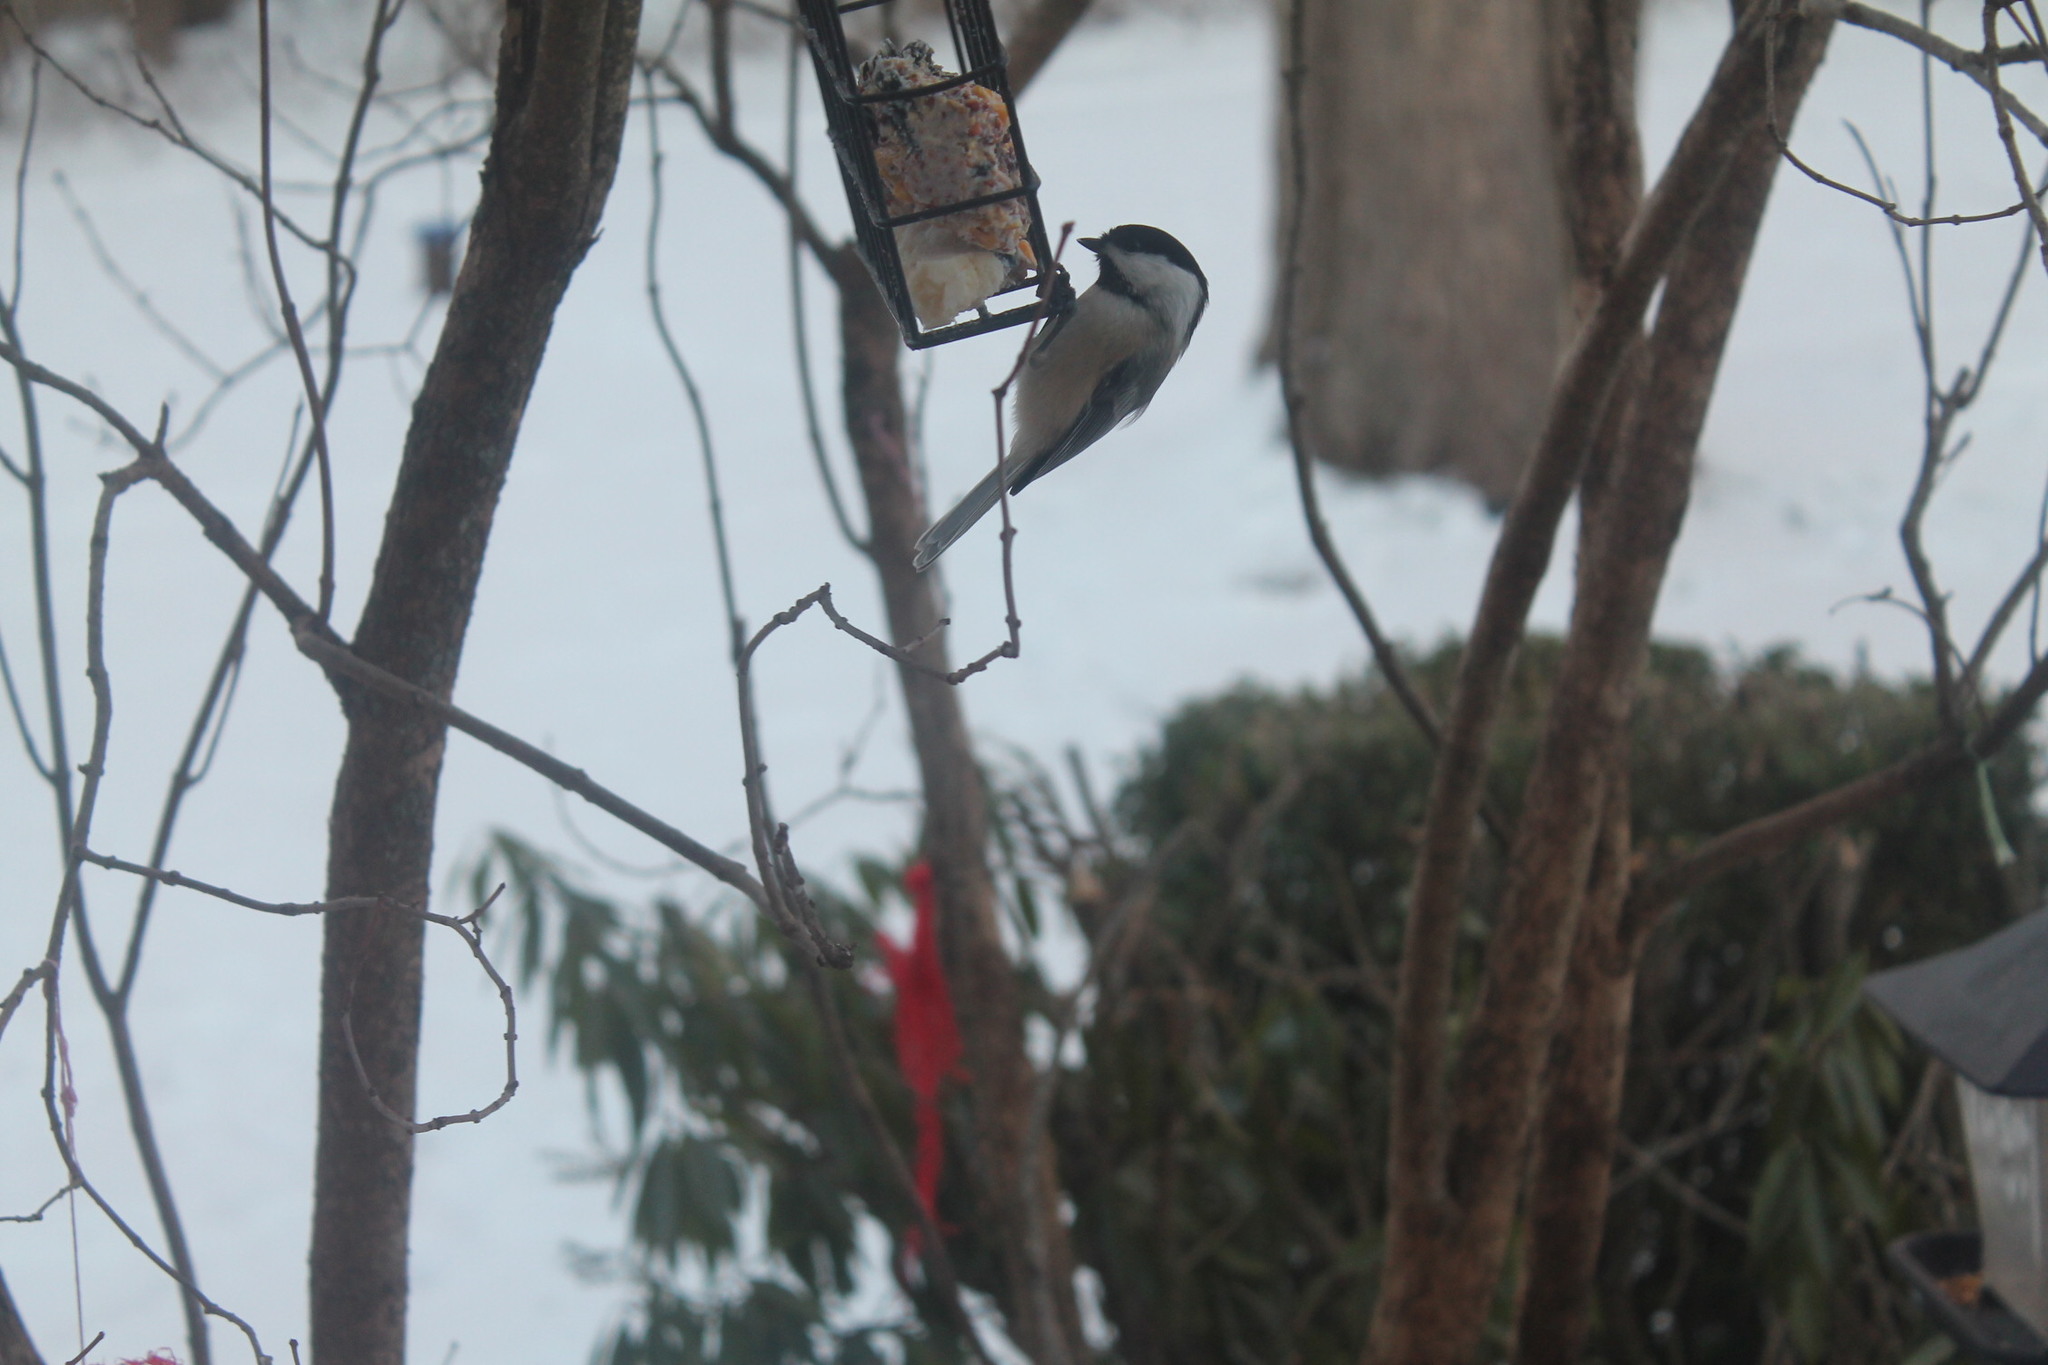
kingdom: Animalia
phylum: Chordata
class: Aves
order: Passeriformes
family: Paridae
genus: Poecile
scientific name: Poecile atricapillus
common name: Black-capped chickadee
